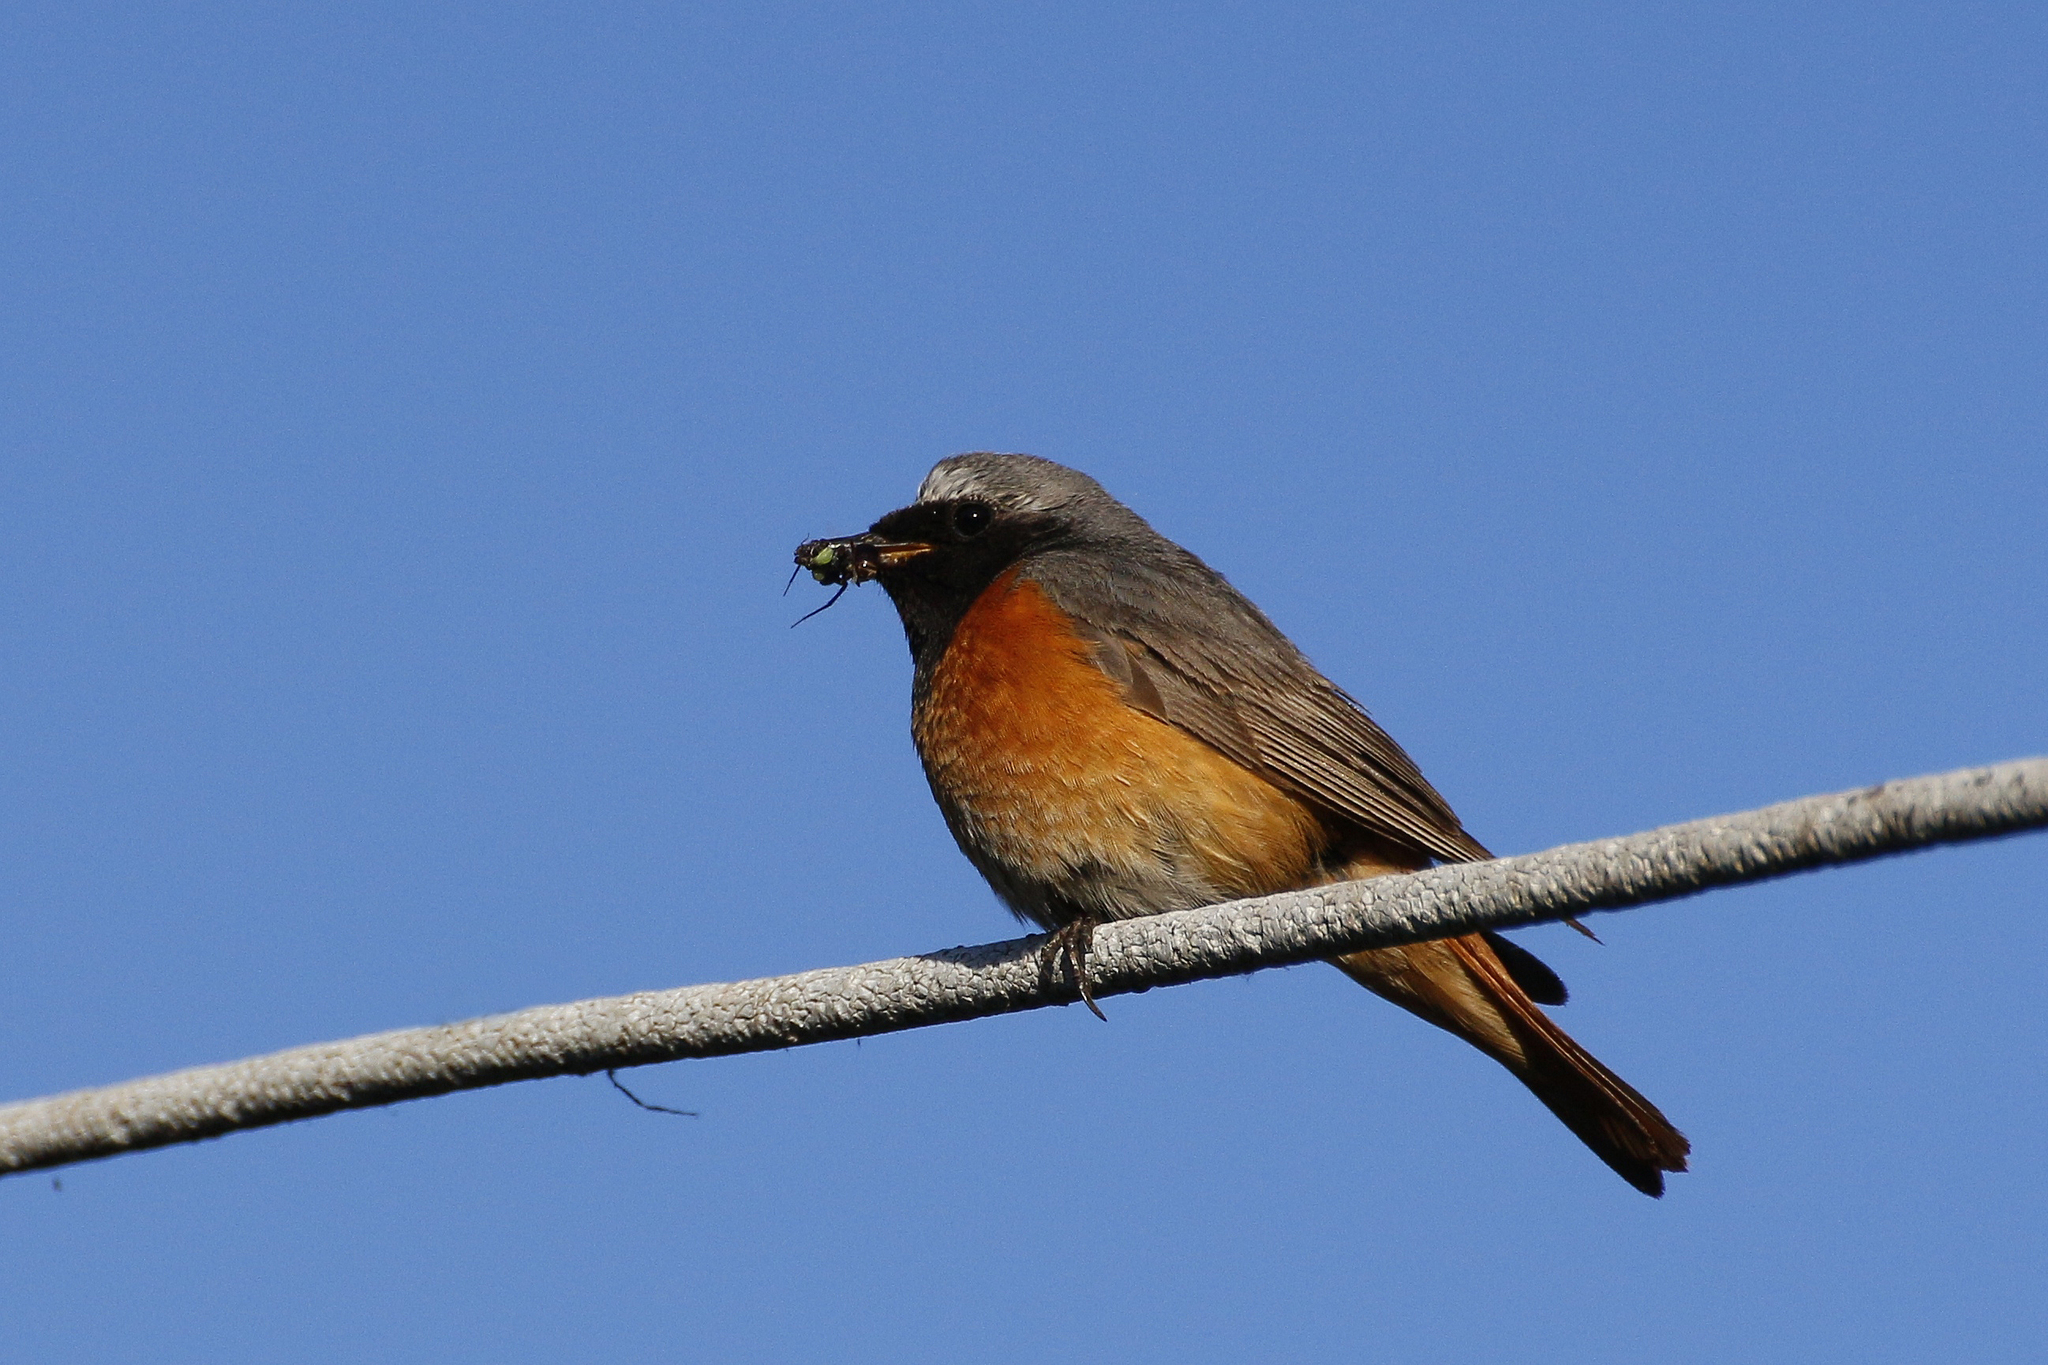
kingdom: Animalia
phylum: Chordata
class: Aves
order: Passeriformes
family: Muscicapidae
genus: Phoenicurus
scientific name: Phoenicurus phoenicurus
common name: Common redstart
